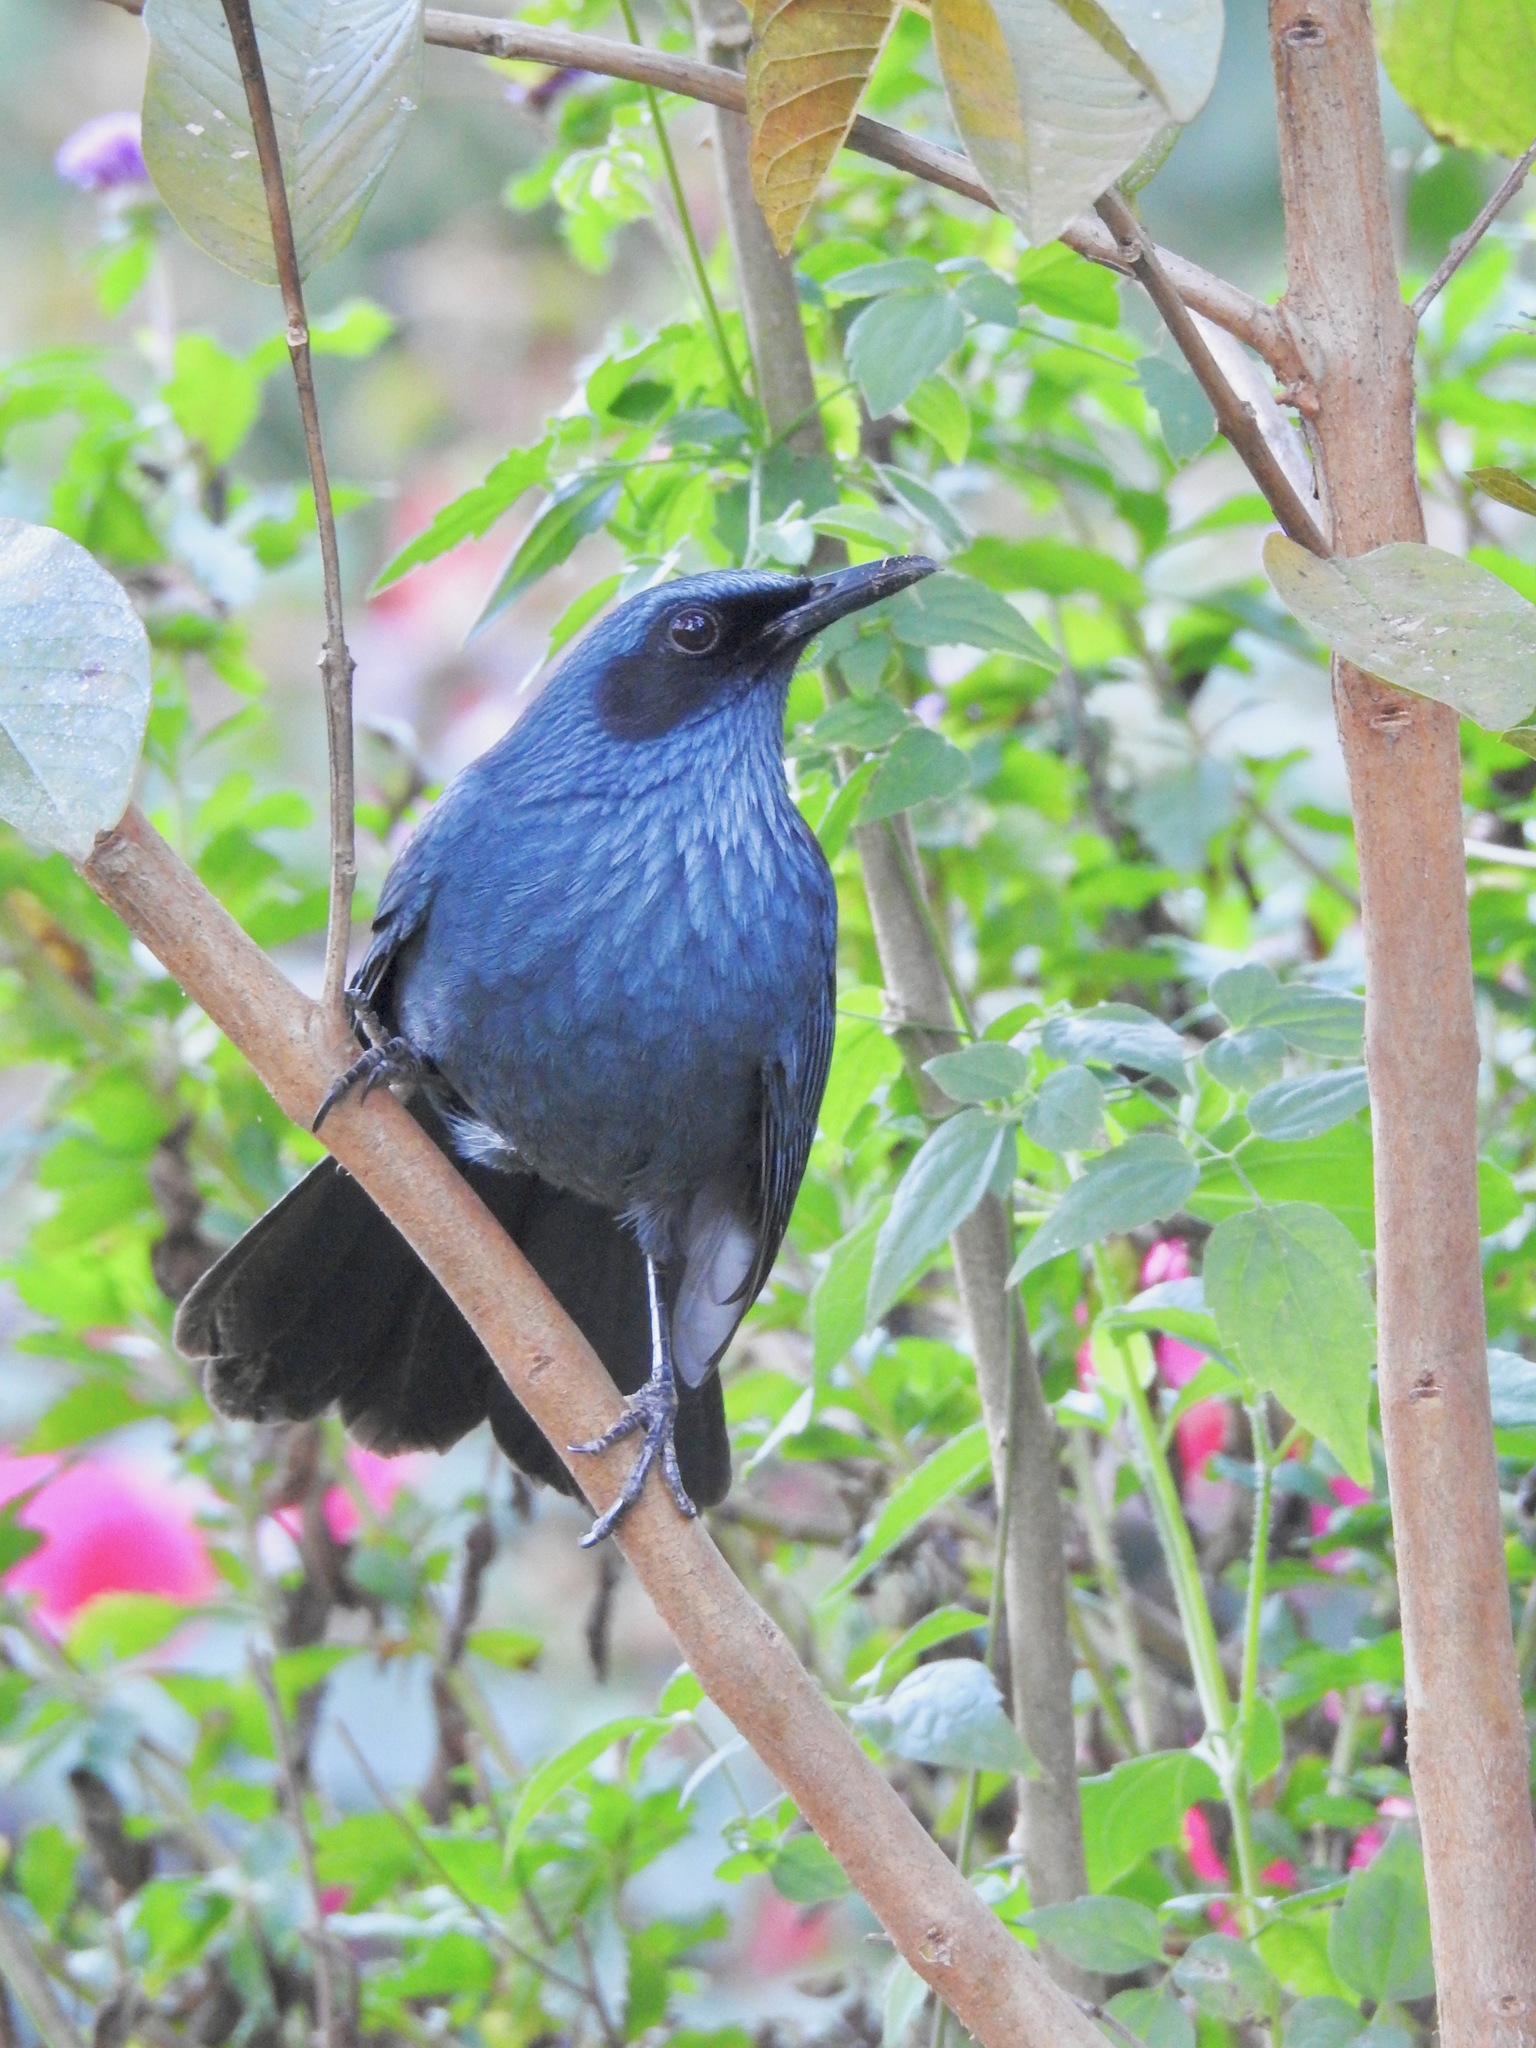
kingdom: Animalia
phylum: Chordata
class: Aves
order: Passeriformes
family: Mimidae
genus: Melanotis
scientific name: Melanotis caerulescens
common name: Blue mockingbird
